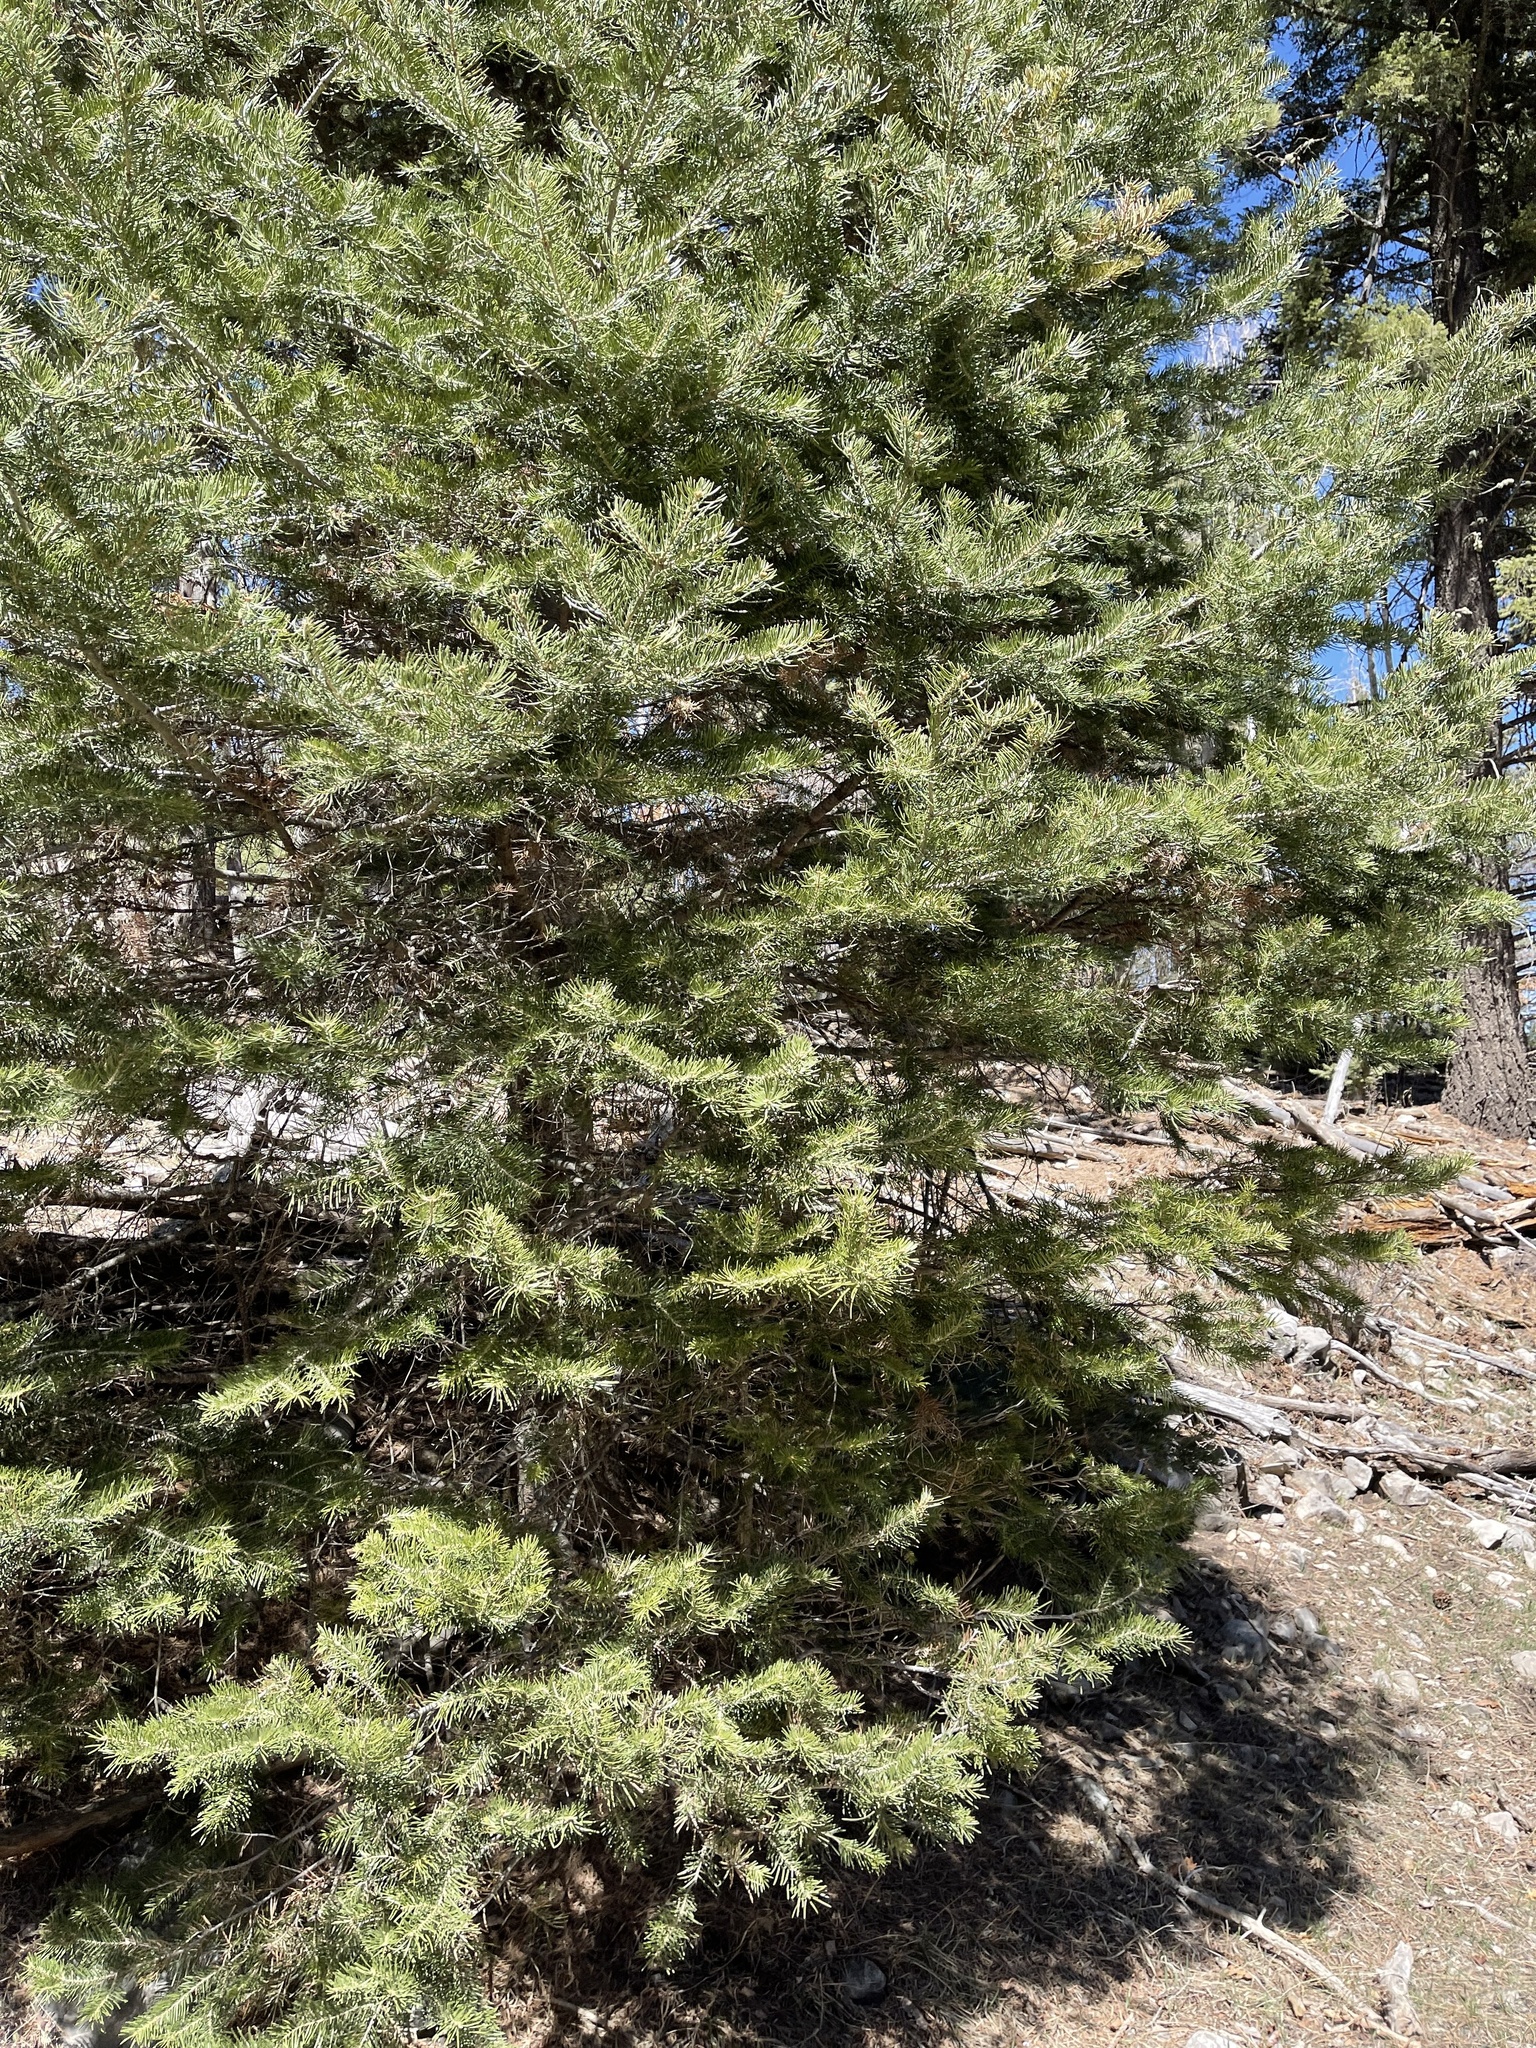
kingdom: Plantae
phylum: Tracheophyta
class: Pinopsida
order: Pinales
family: Pinaceae
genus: Abies
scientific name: Abies concolor
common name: Colorado fir
